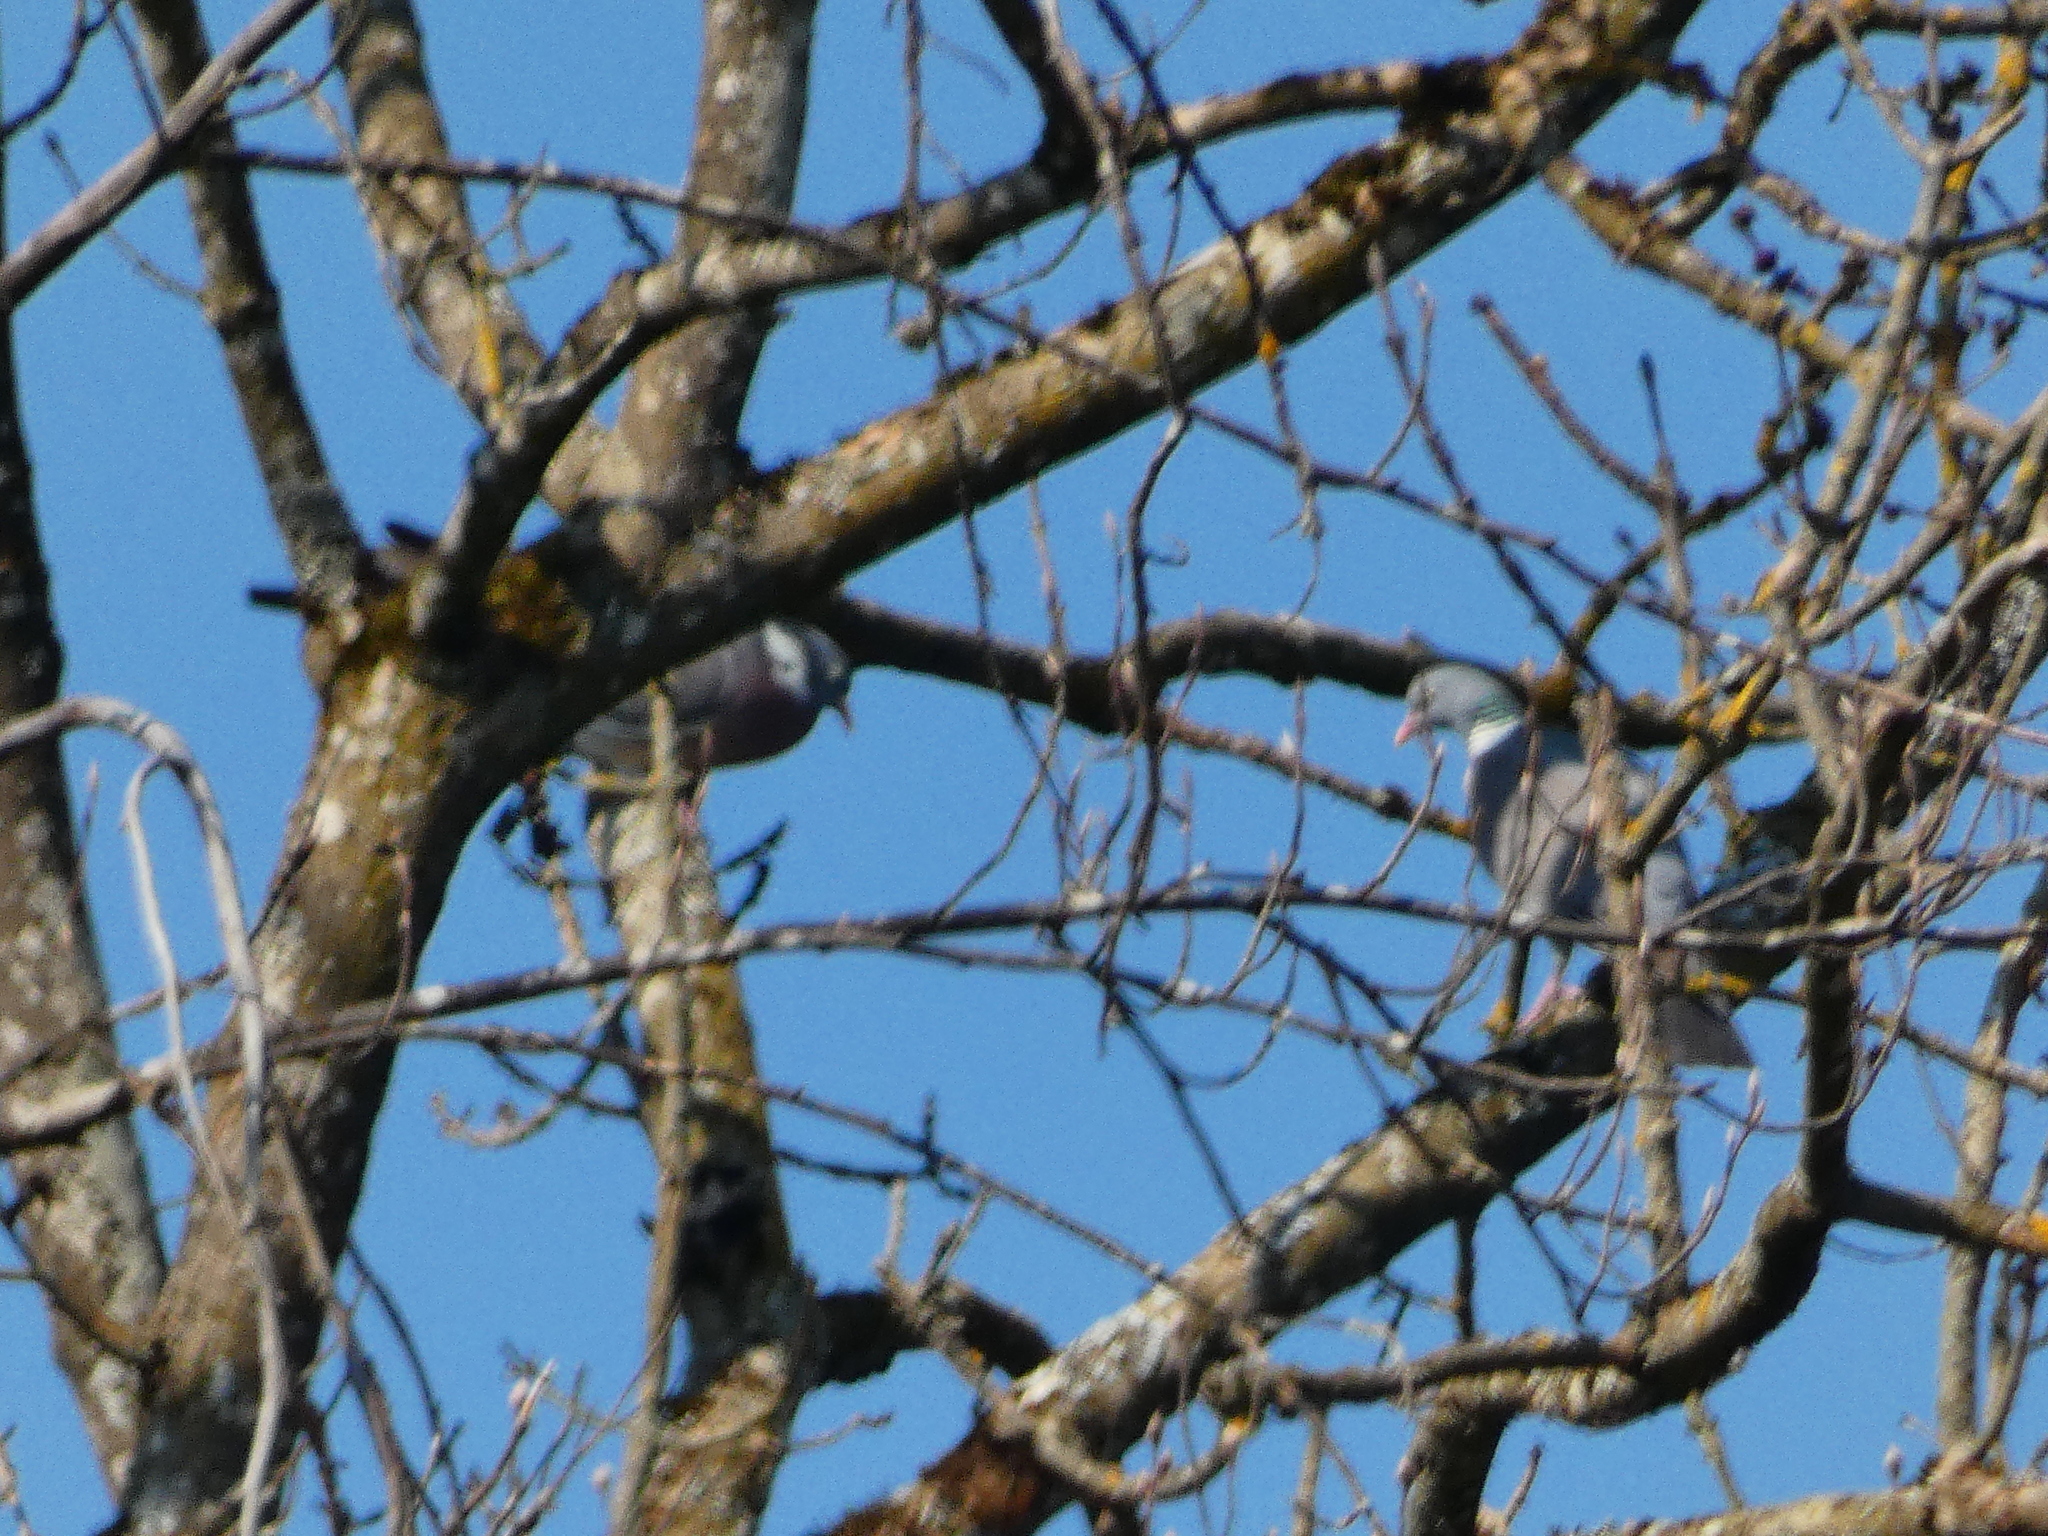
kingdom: Animalia
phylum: Chordata
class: Aves
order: Columbiformes
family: Columbidae
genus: Columba
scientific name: Columba palumbus
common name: Common wood pigeon
